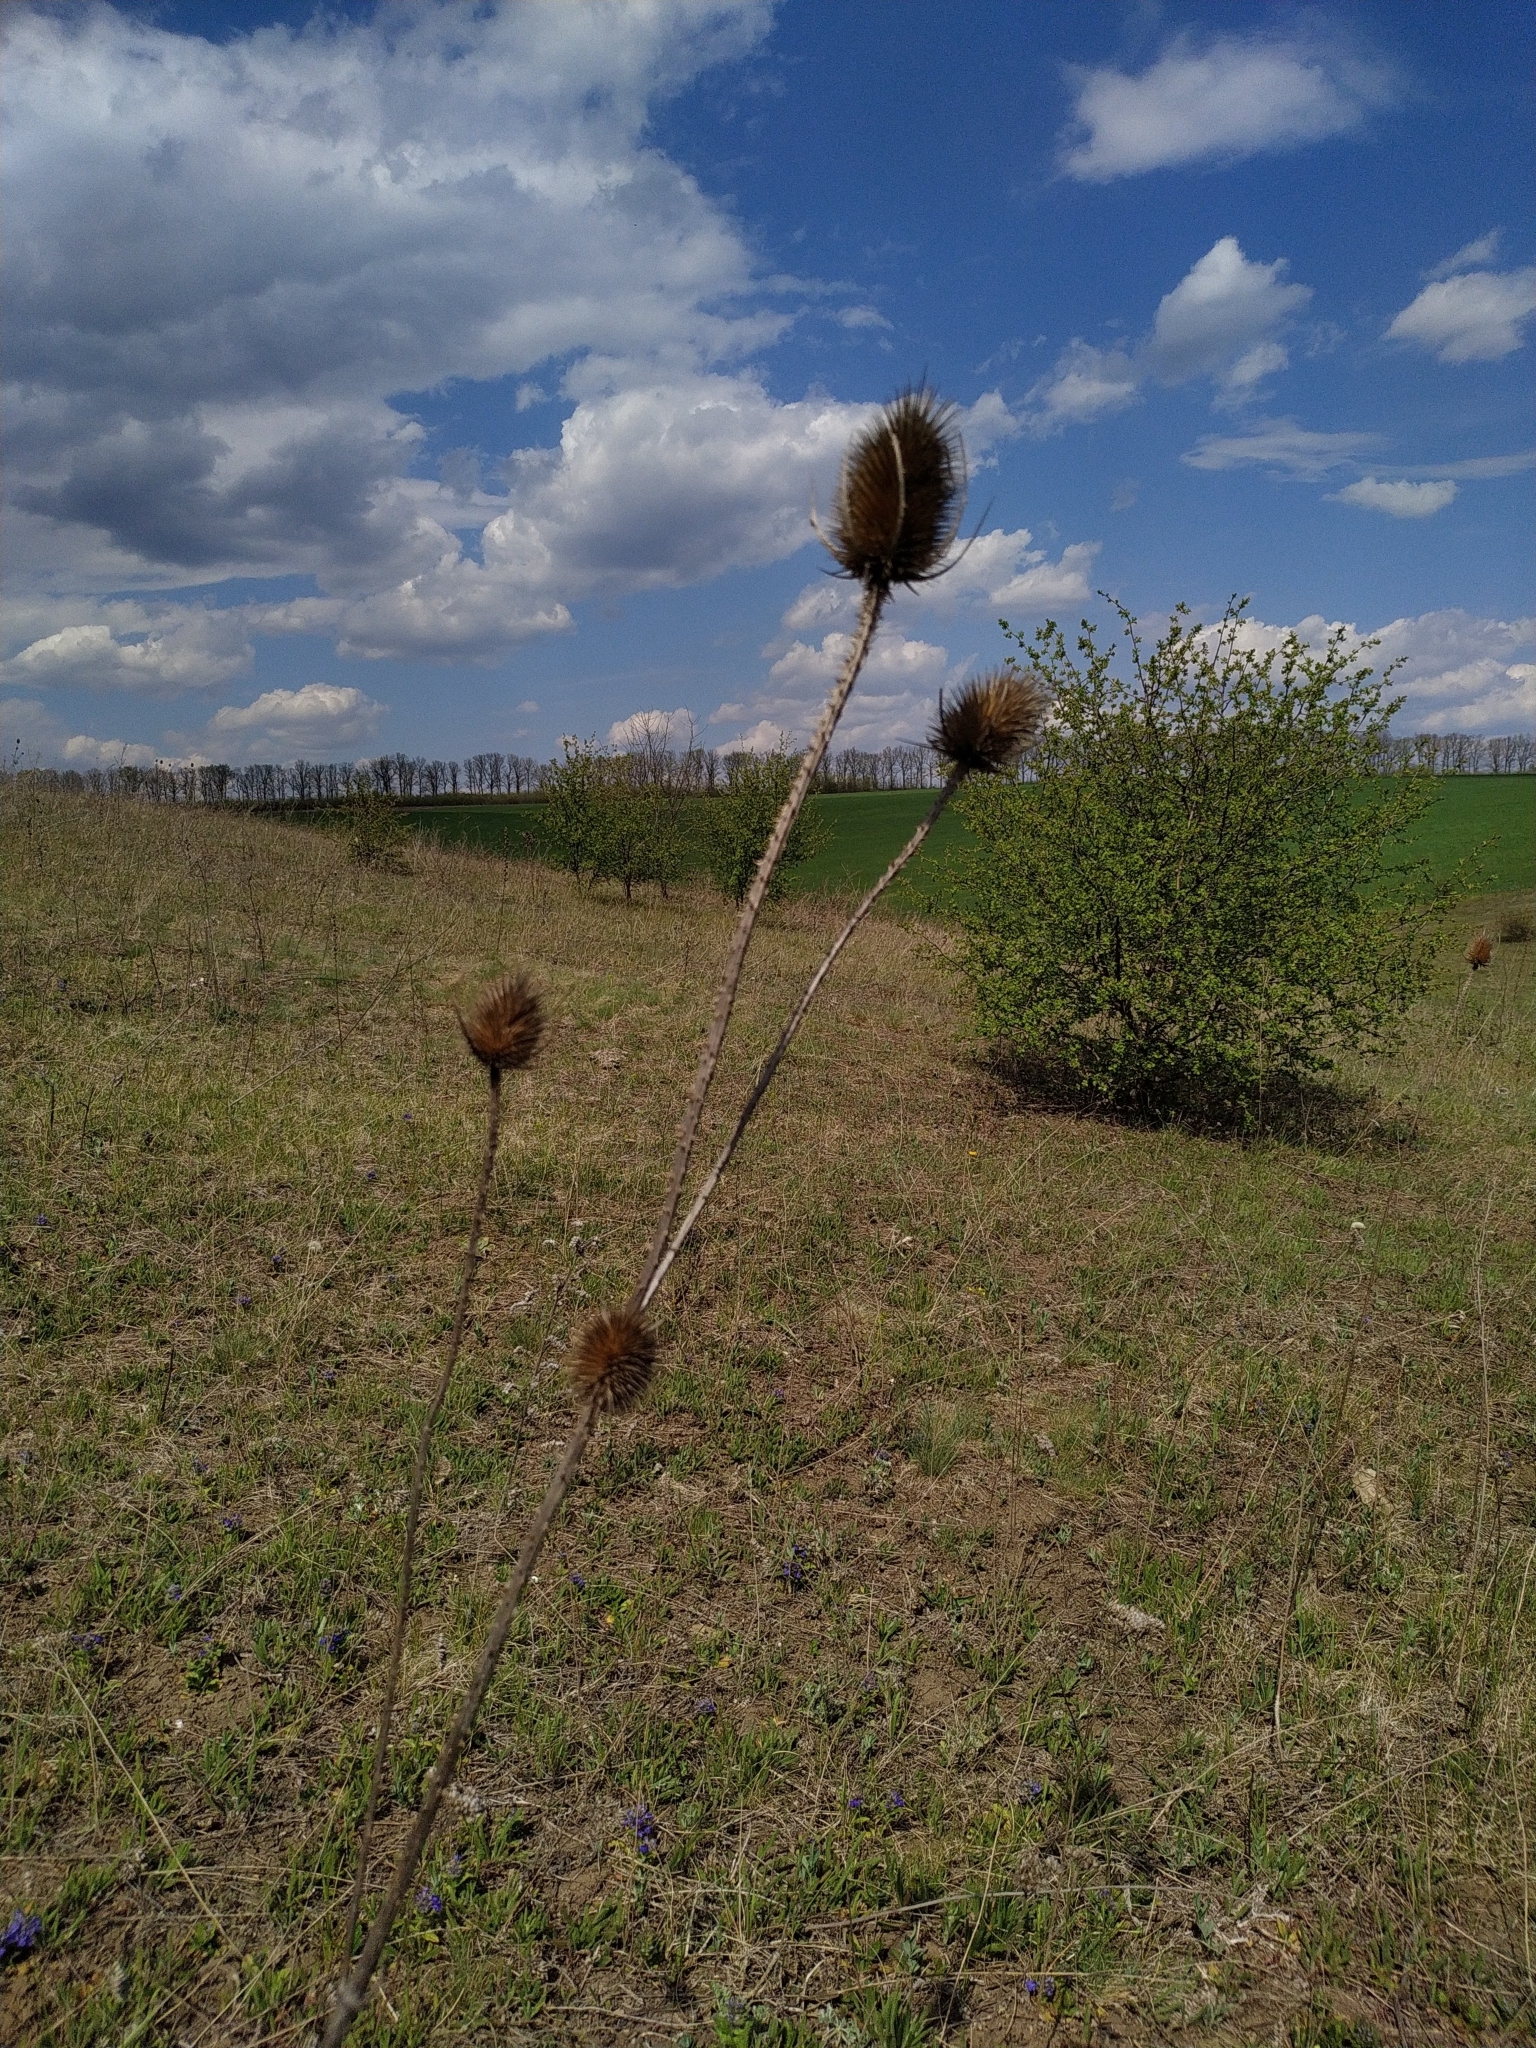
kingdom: Plantae
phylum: Tracheophyta
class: Magnoliopsida
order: Dipsacales
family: Caprifoliaceae
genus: Dipsacus
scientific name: Dipsacus fullonum
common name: Teasel
